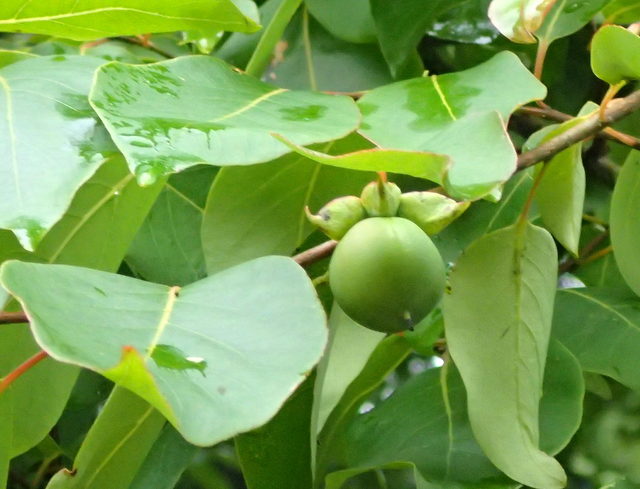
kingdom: Plantae
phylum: Tracheophyta
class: Magnoliopsida
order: Ericales
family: Ebenaceae
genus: Diospyros
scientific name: Diospyros virginiana
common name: Persimmon
